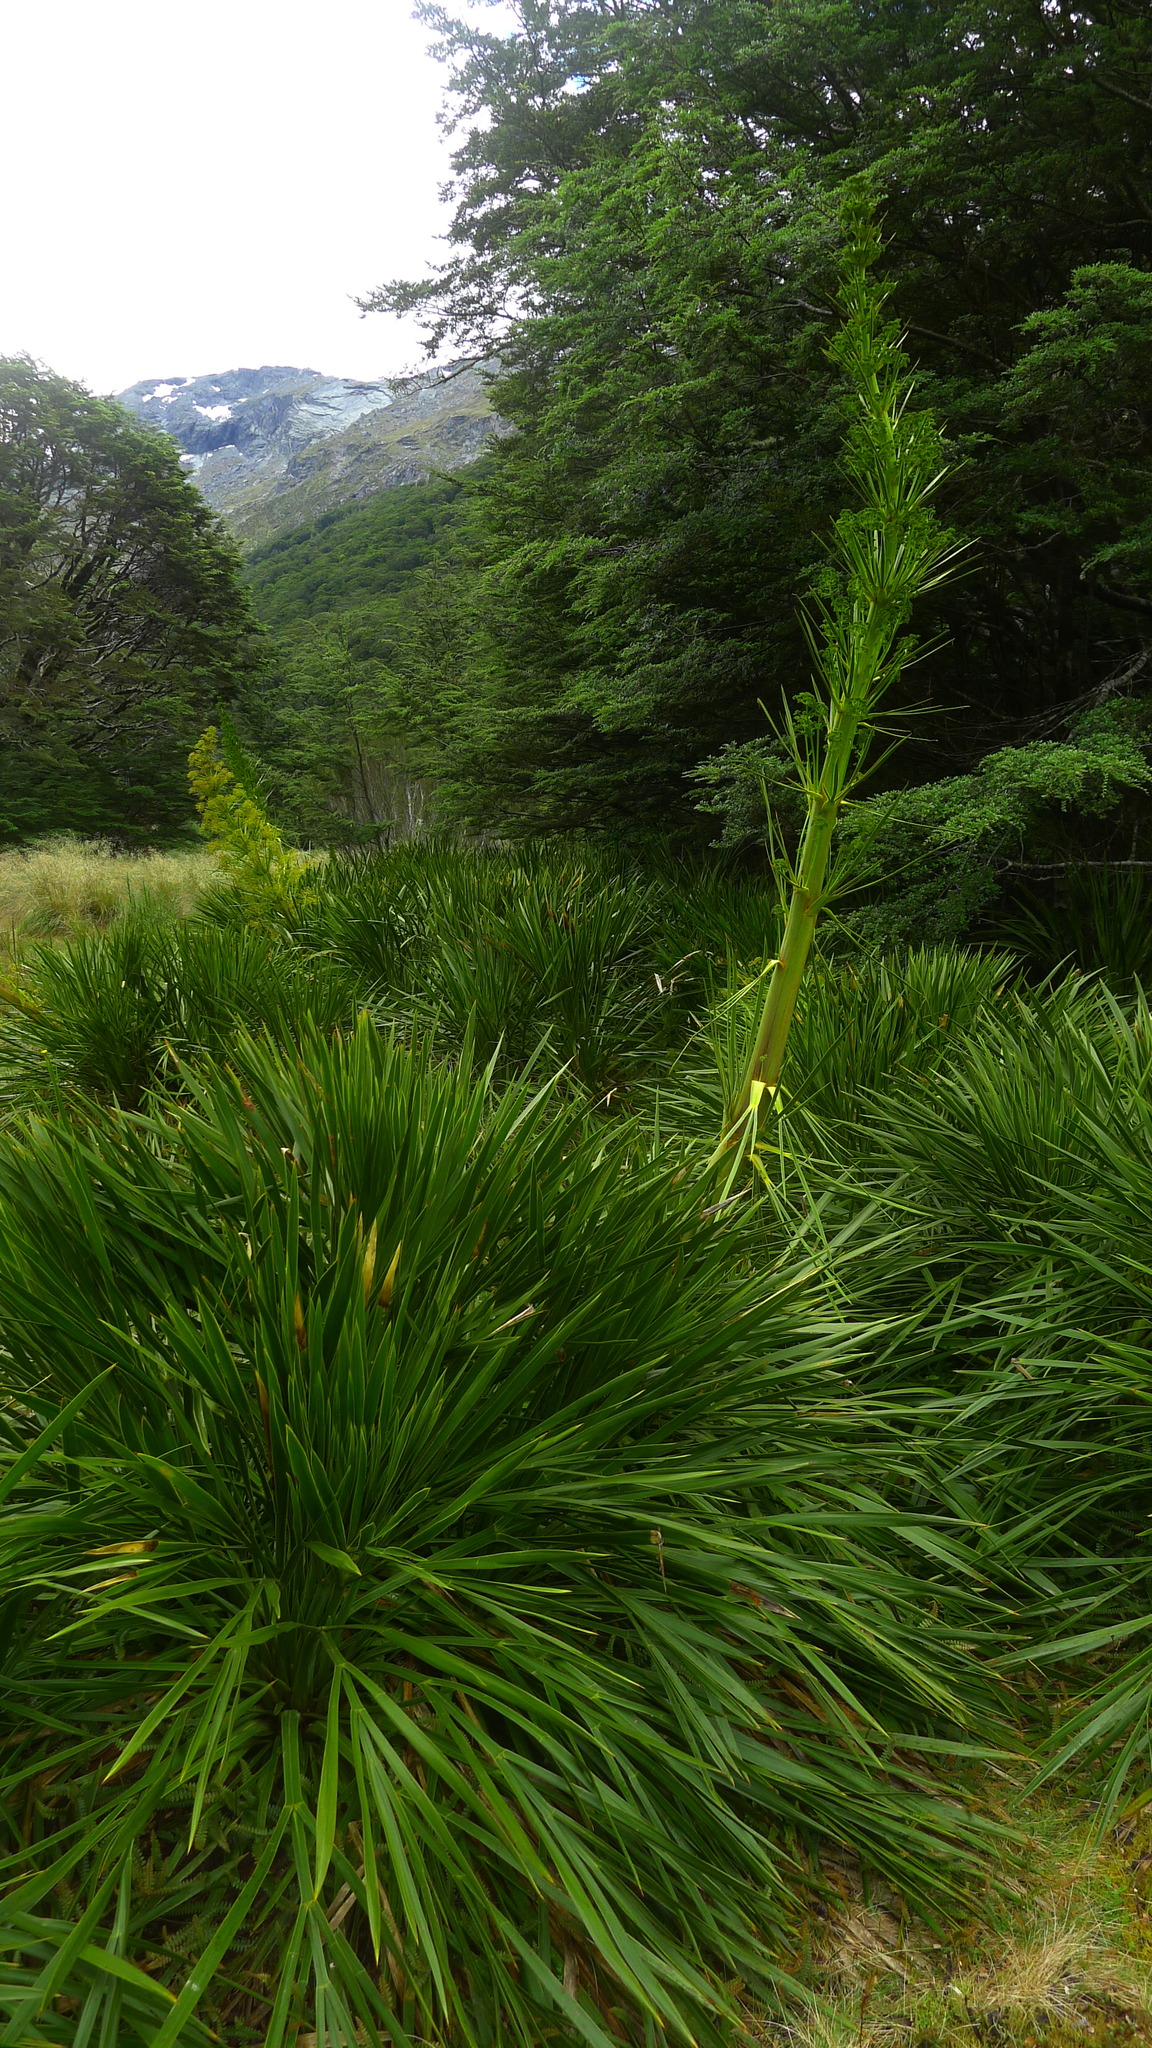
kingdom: Plantae
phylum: Tracheophyta
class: Magnoliopsida
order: Apiales
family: Apiaceae
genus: Aciphylla
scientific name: Aciphylla horrida
